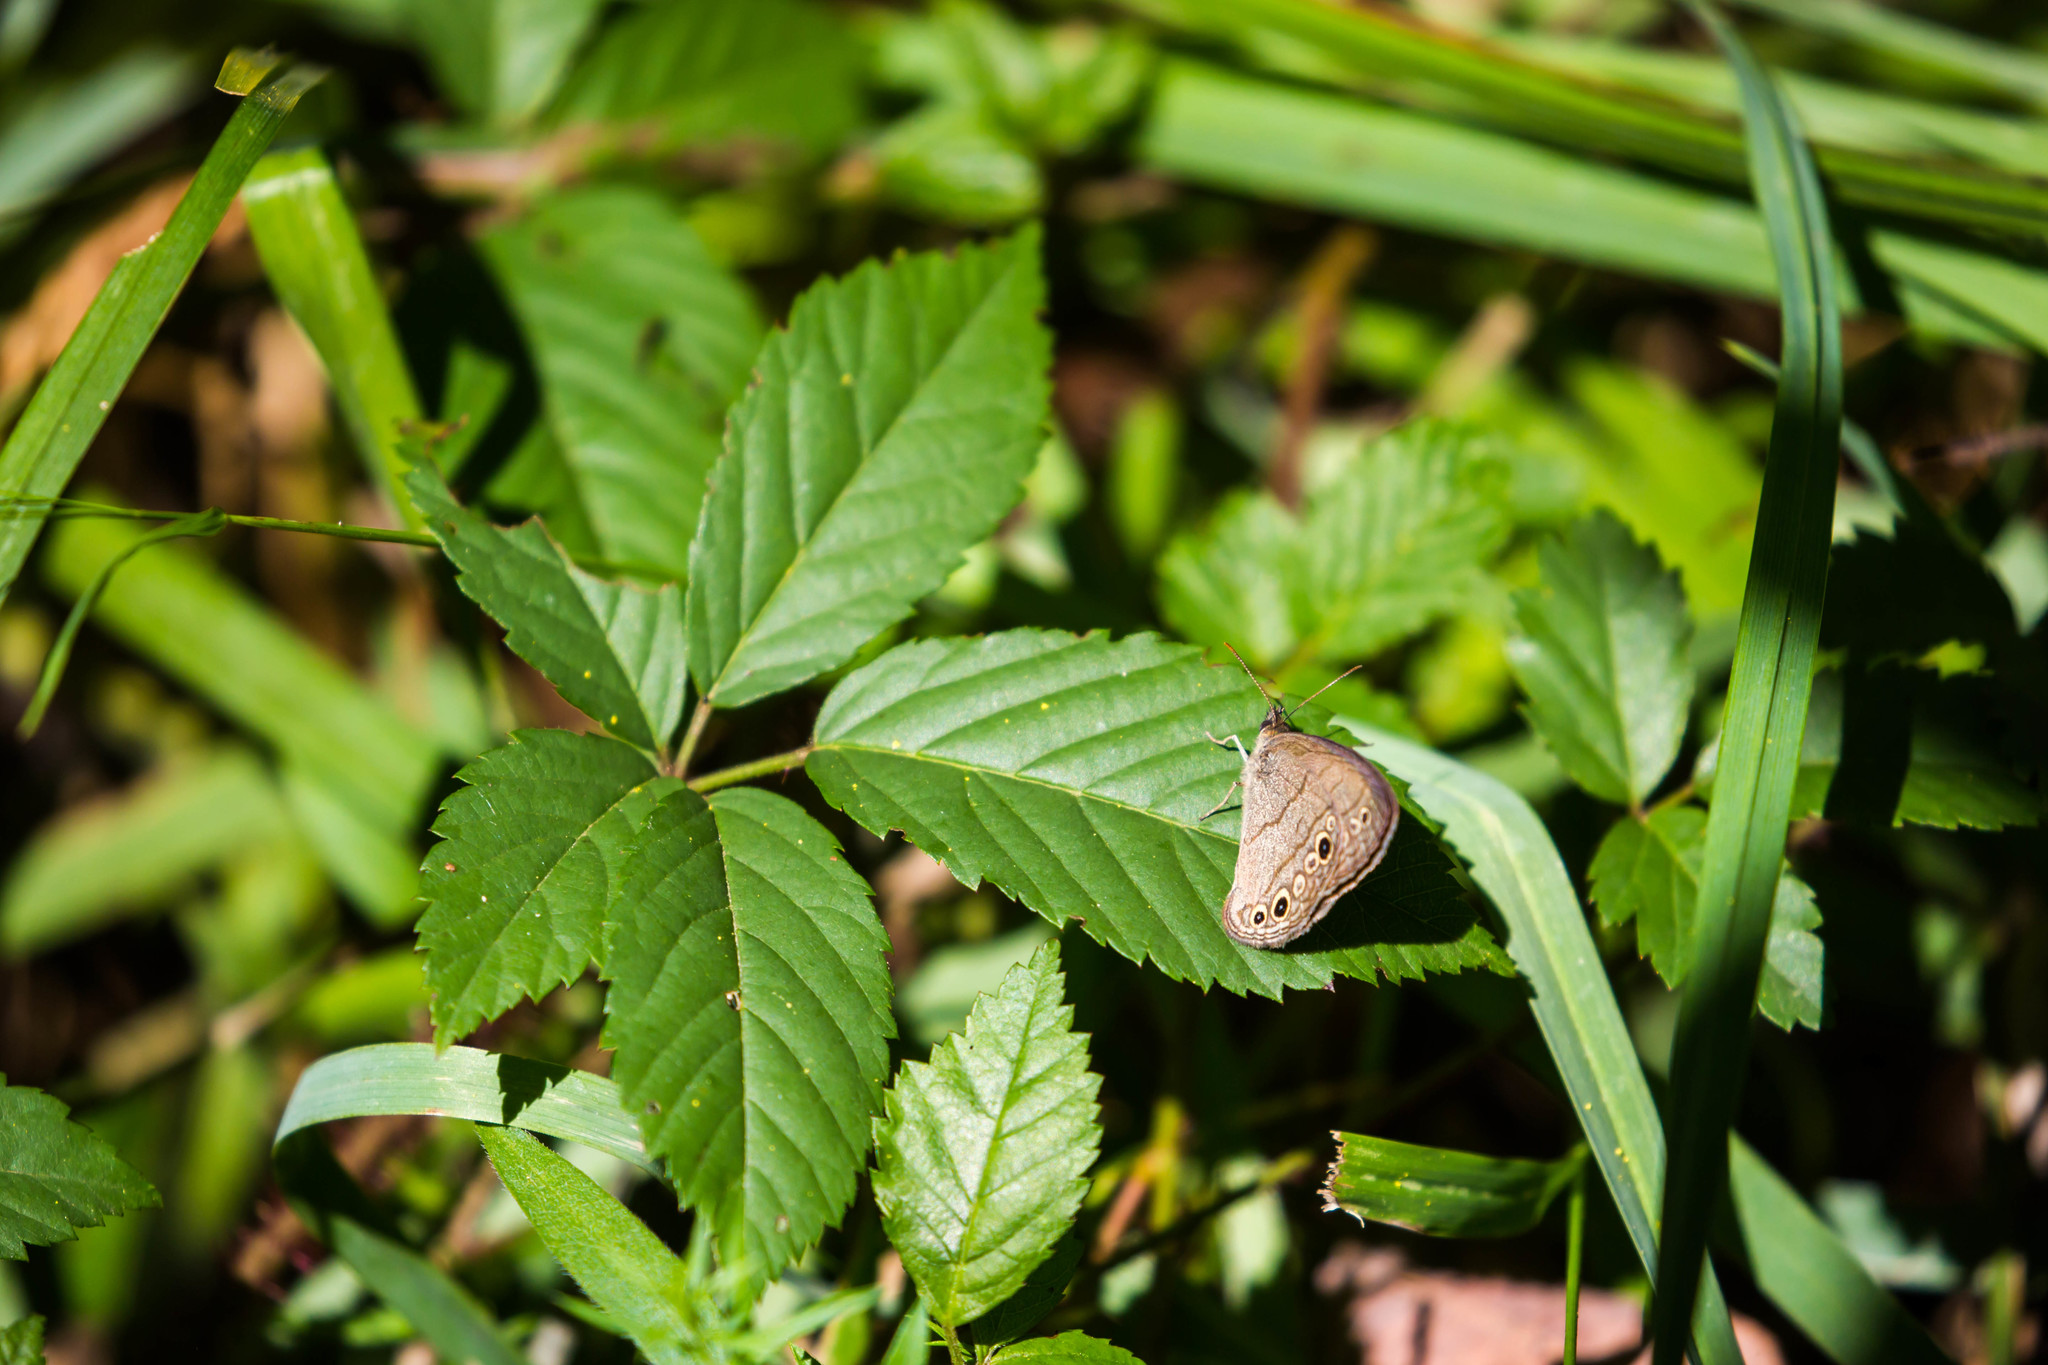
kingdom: Animalia
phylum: Arthropoda
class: Insecta
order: Lepidoptera
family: Nymphalidae
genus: Hermeuptychia
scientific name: Hermeuptychia hermes
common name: Hermes satyr
